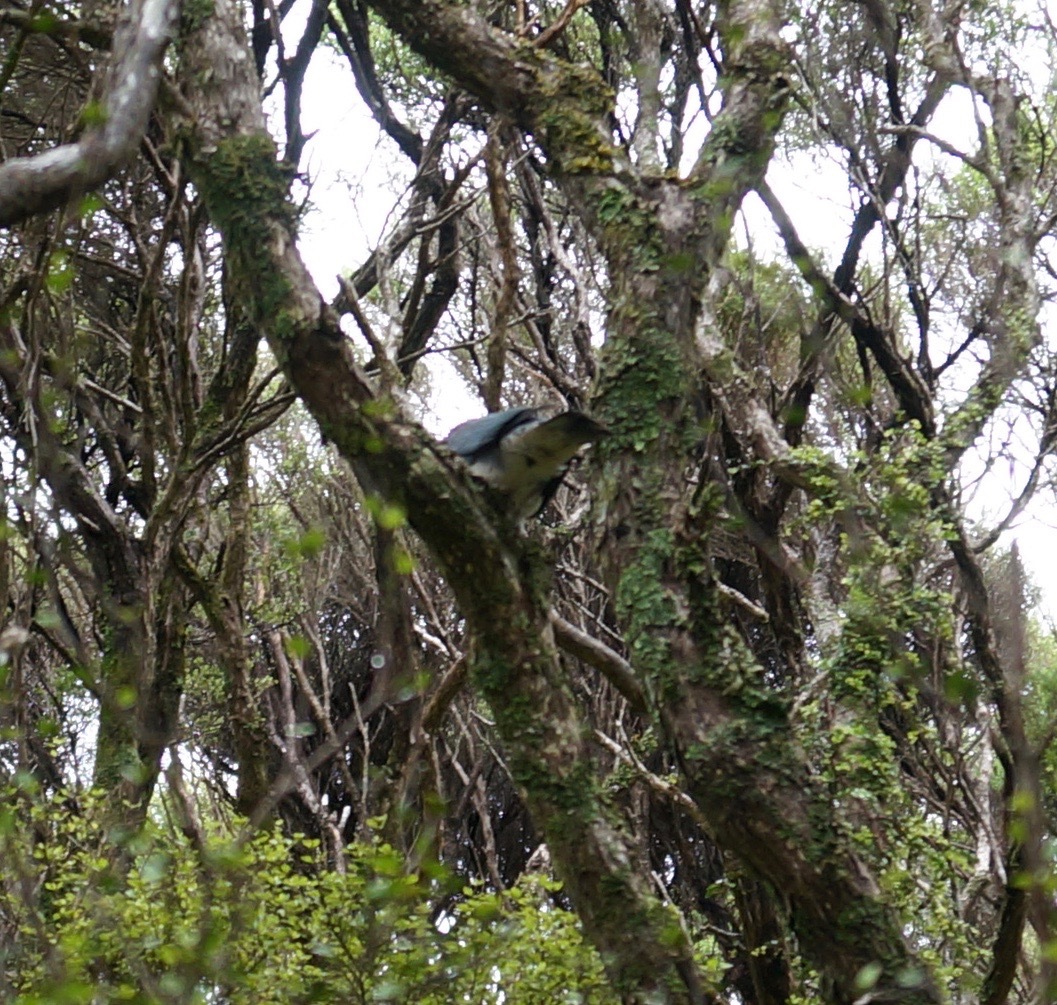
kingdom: Animalia
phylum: Chordata
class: Aves
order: Columbiformes
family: Columbidae
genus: Hemiphaga
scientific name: Hemiphaga novaeseelandiae
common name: New zealand pigeon
